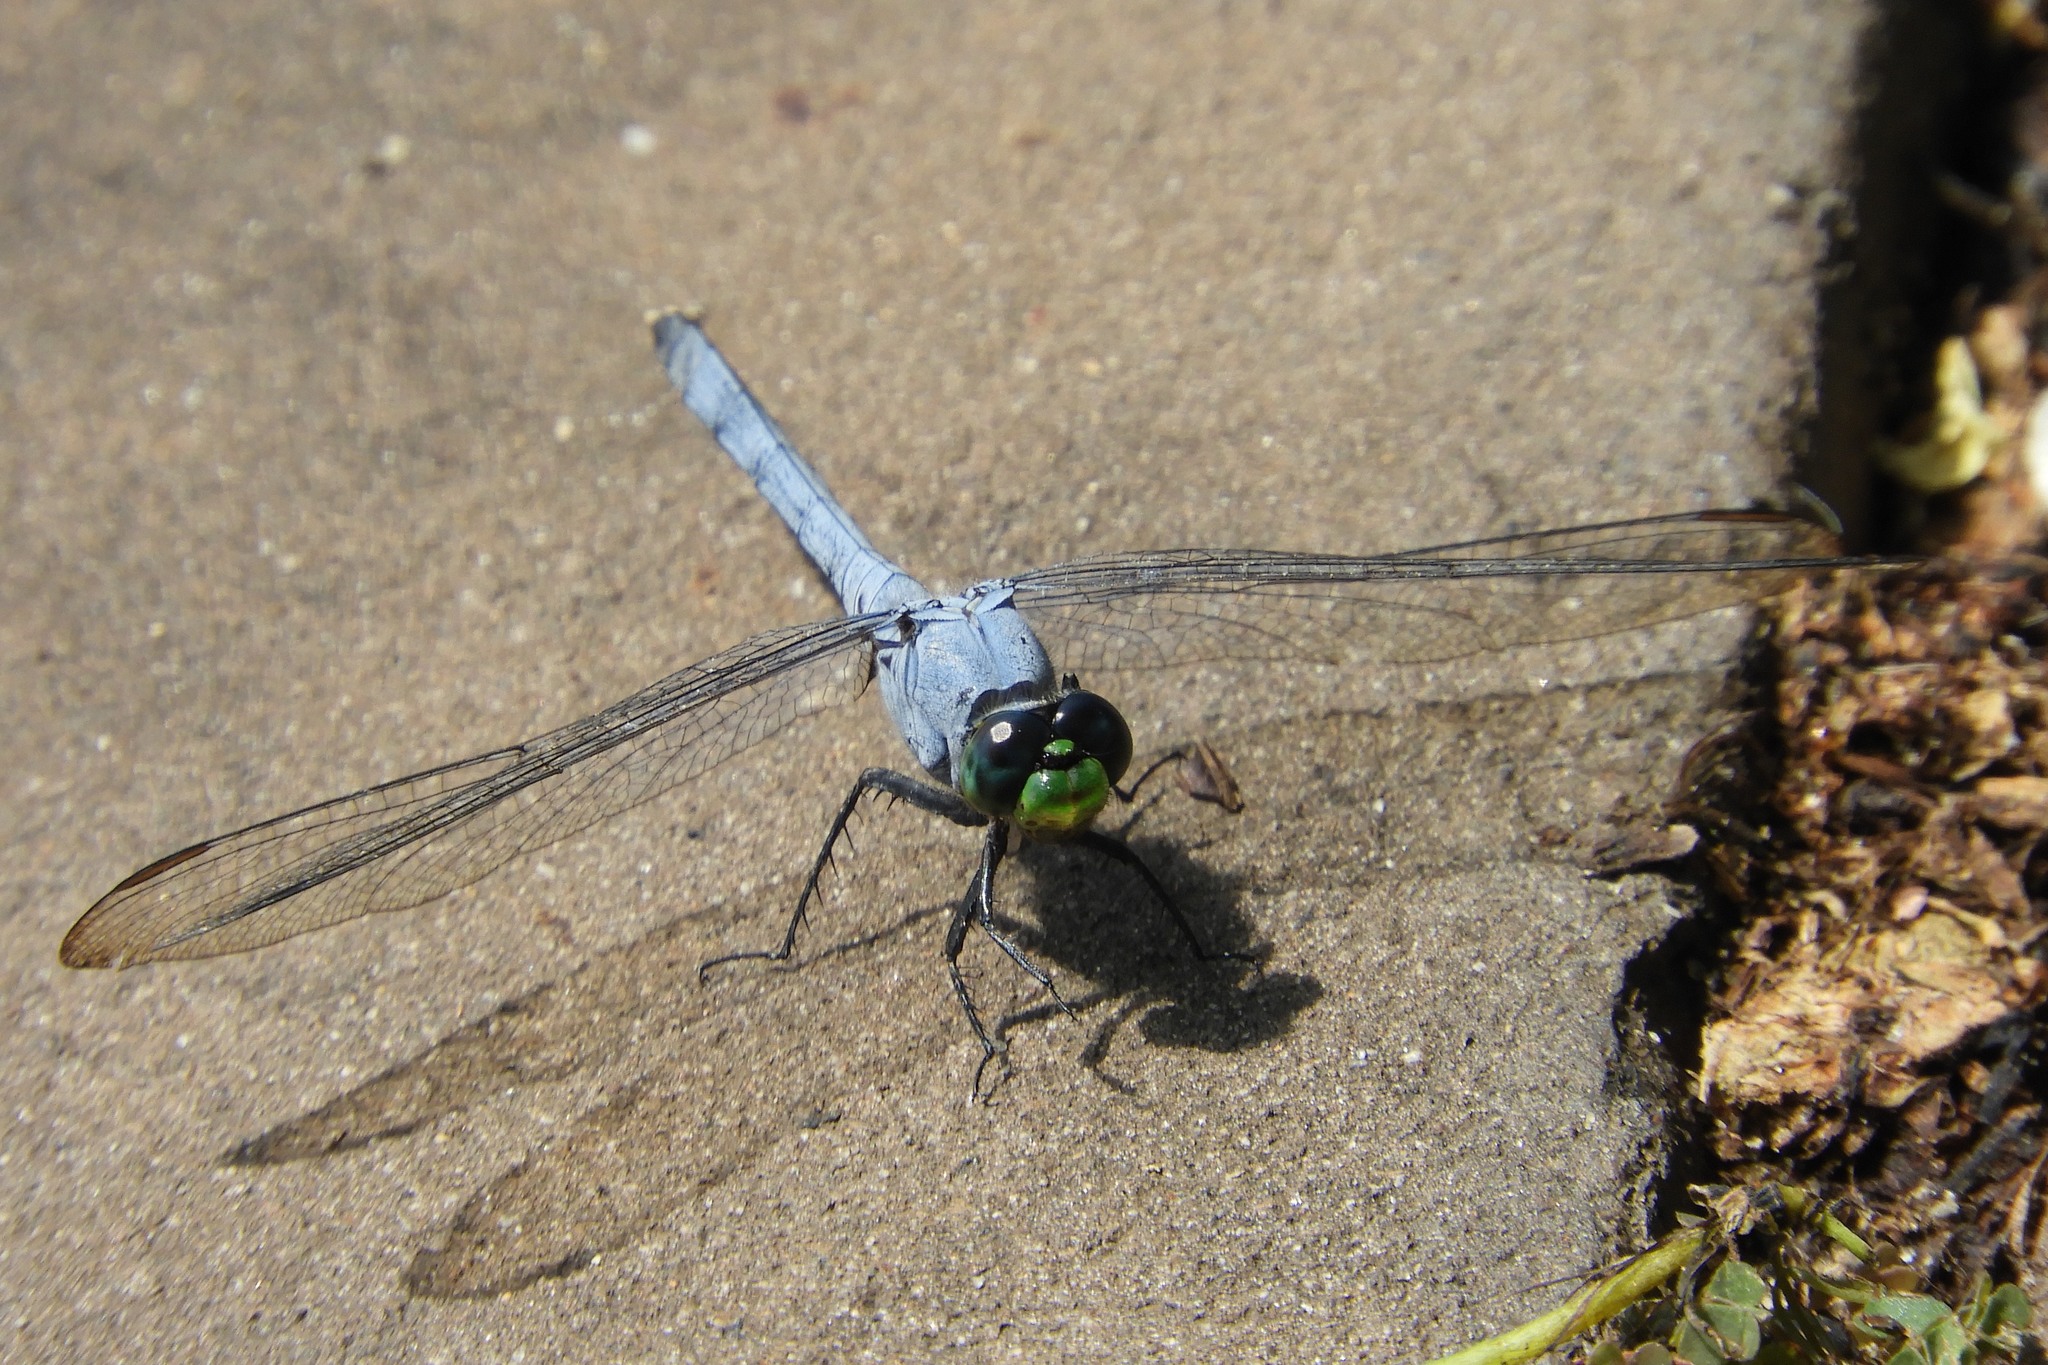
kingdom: Animalia
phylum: Arthropoda
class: Insecta
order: Odonata
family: Libellulidae
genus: Erythemis
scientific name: Erythemis simplicicollis
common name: Eastern pondhawk
